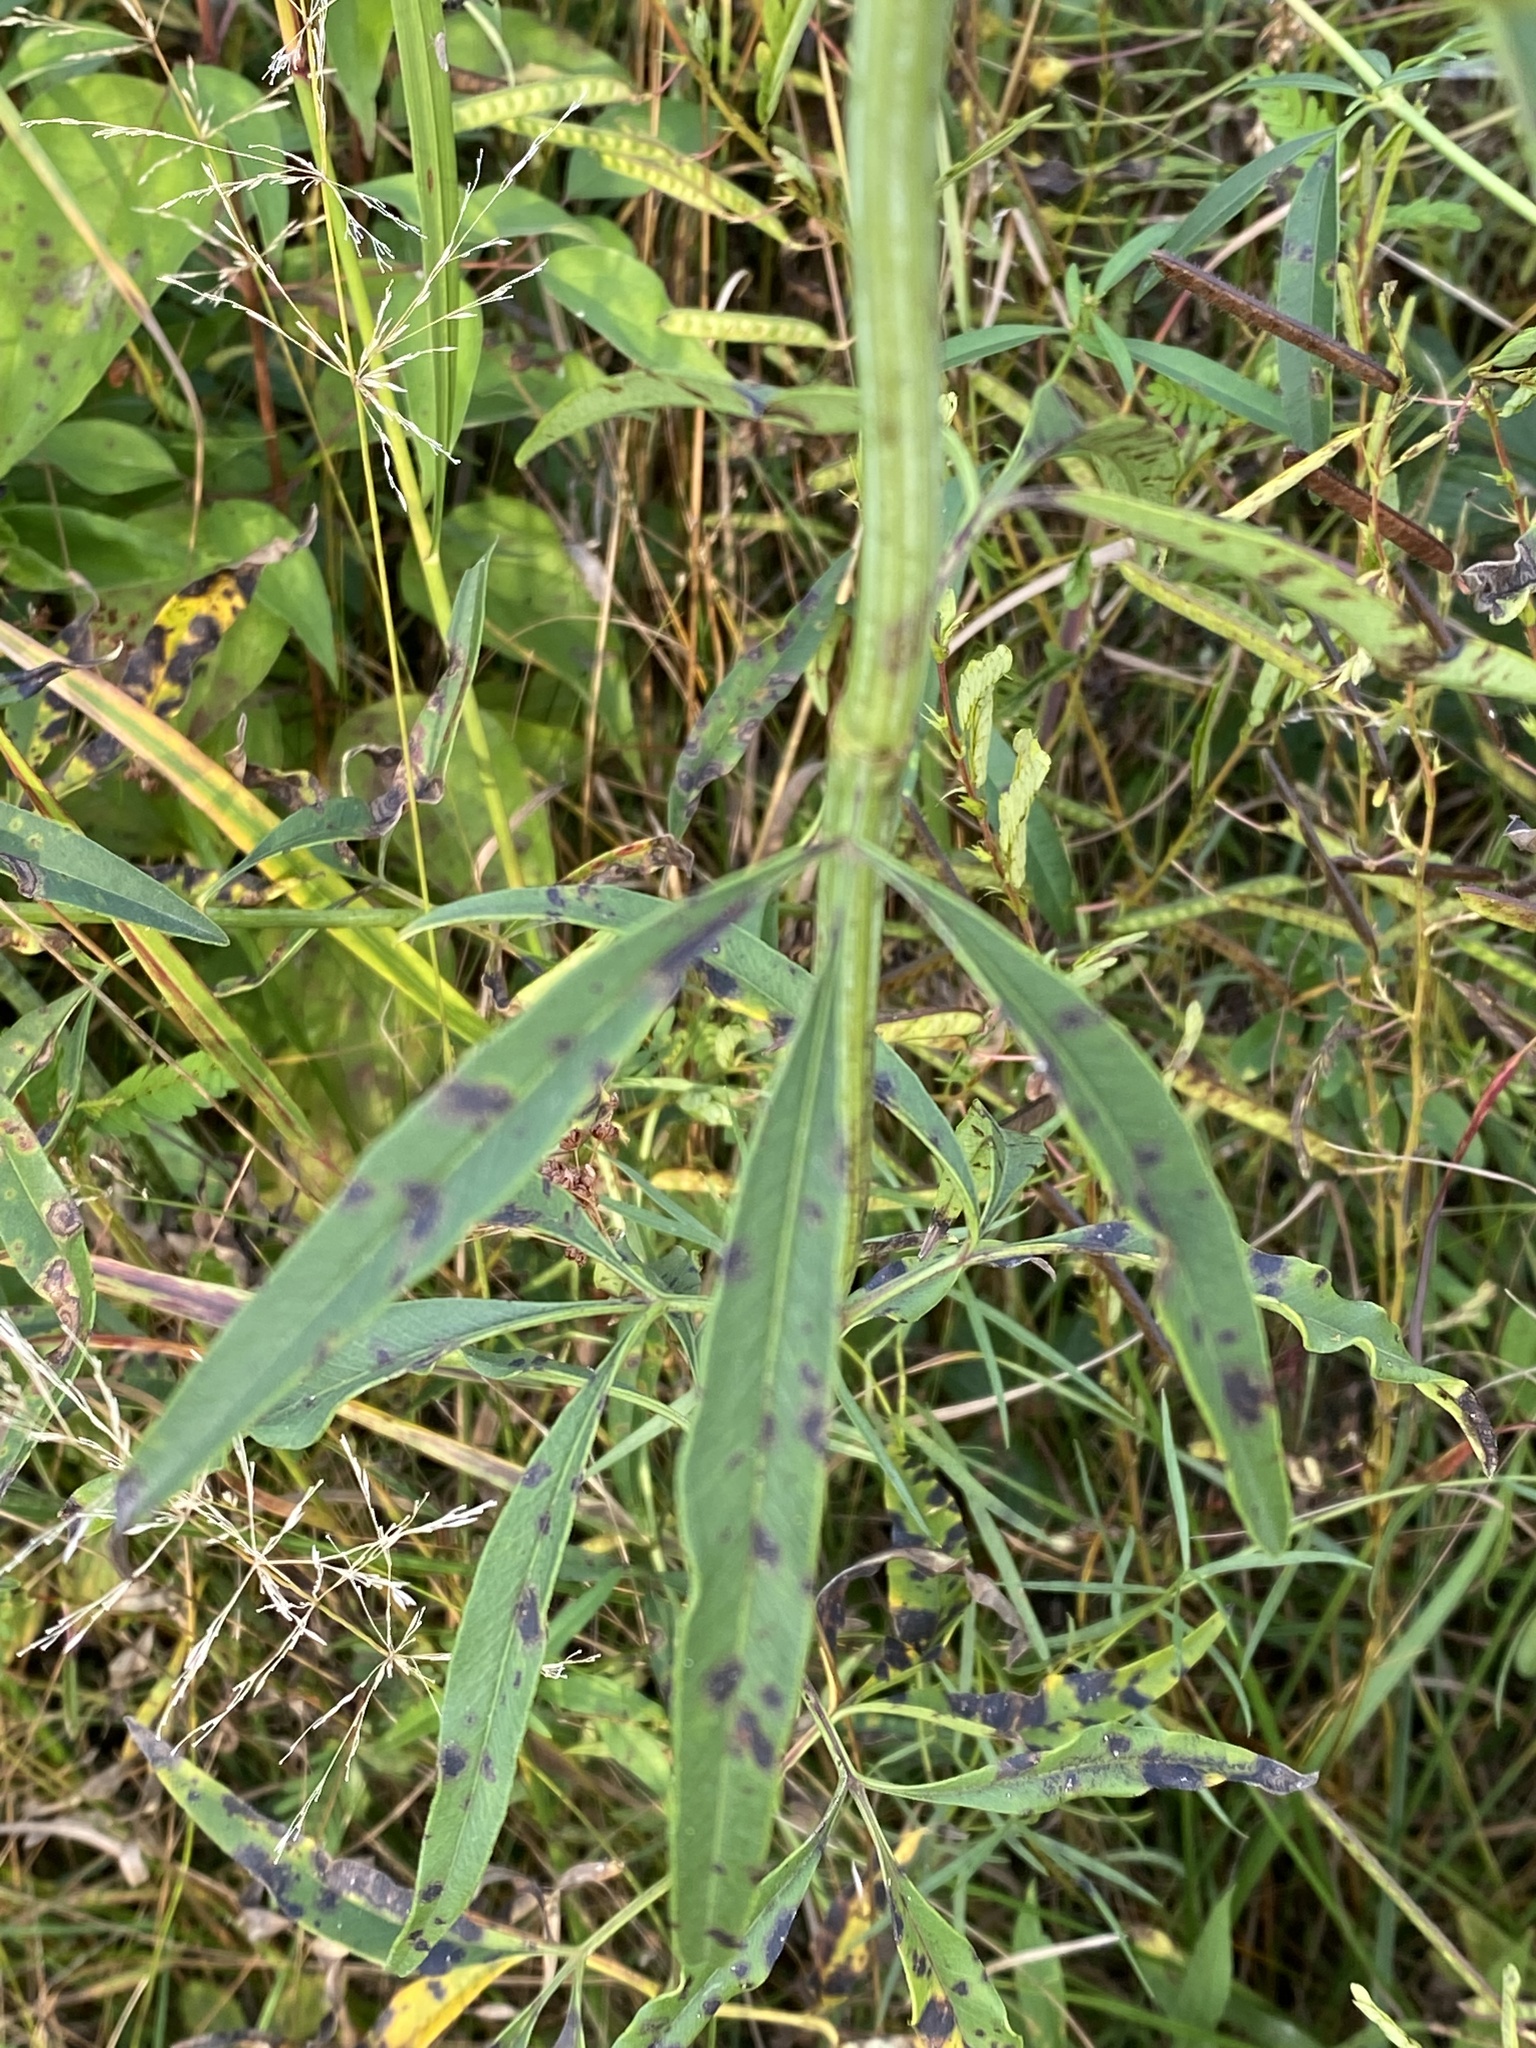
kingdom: Plantae
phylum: Tracheophyta
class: Magnoliopsida
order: Asterales
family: Asteraceae
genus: Coreopsis
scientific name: Coreopsis tripteris
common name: Tall coreopsis
